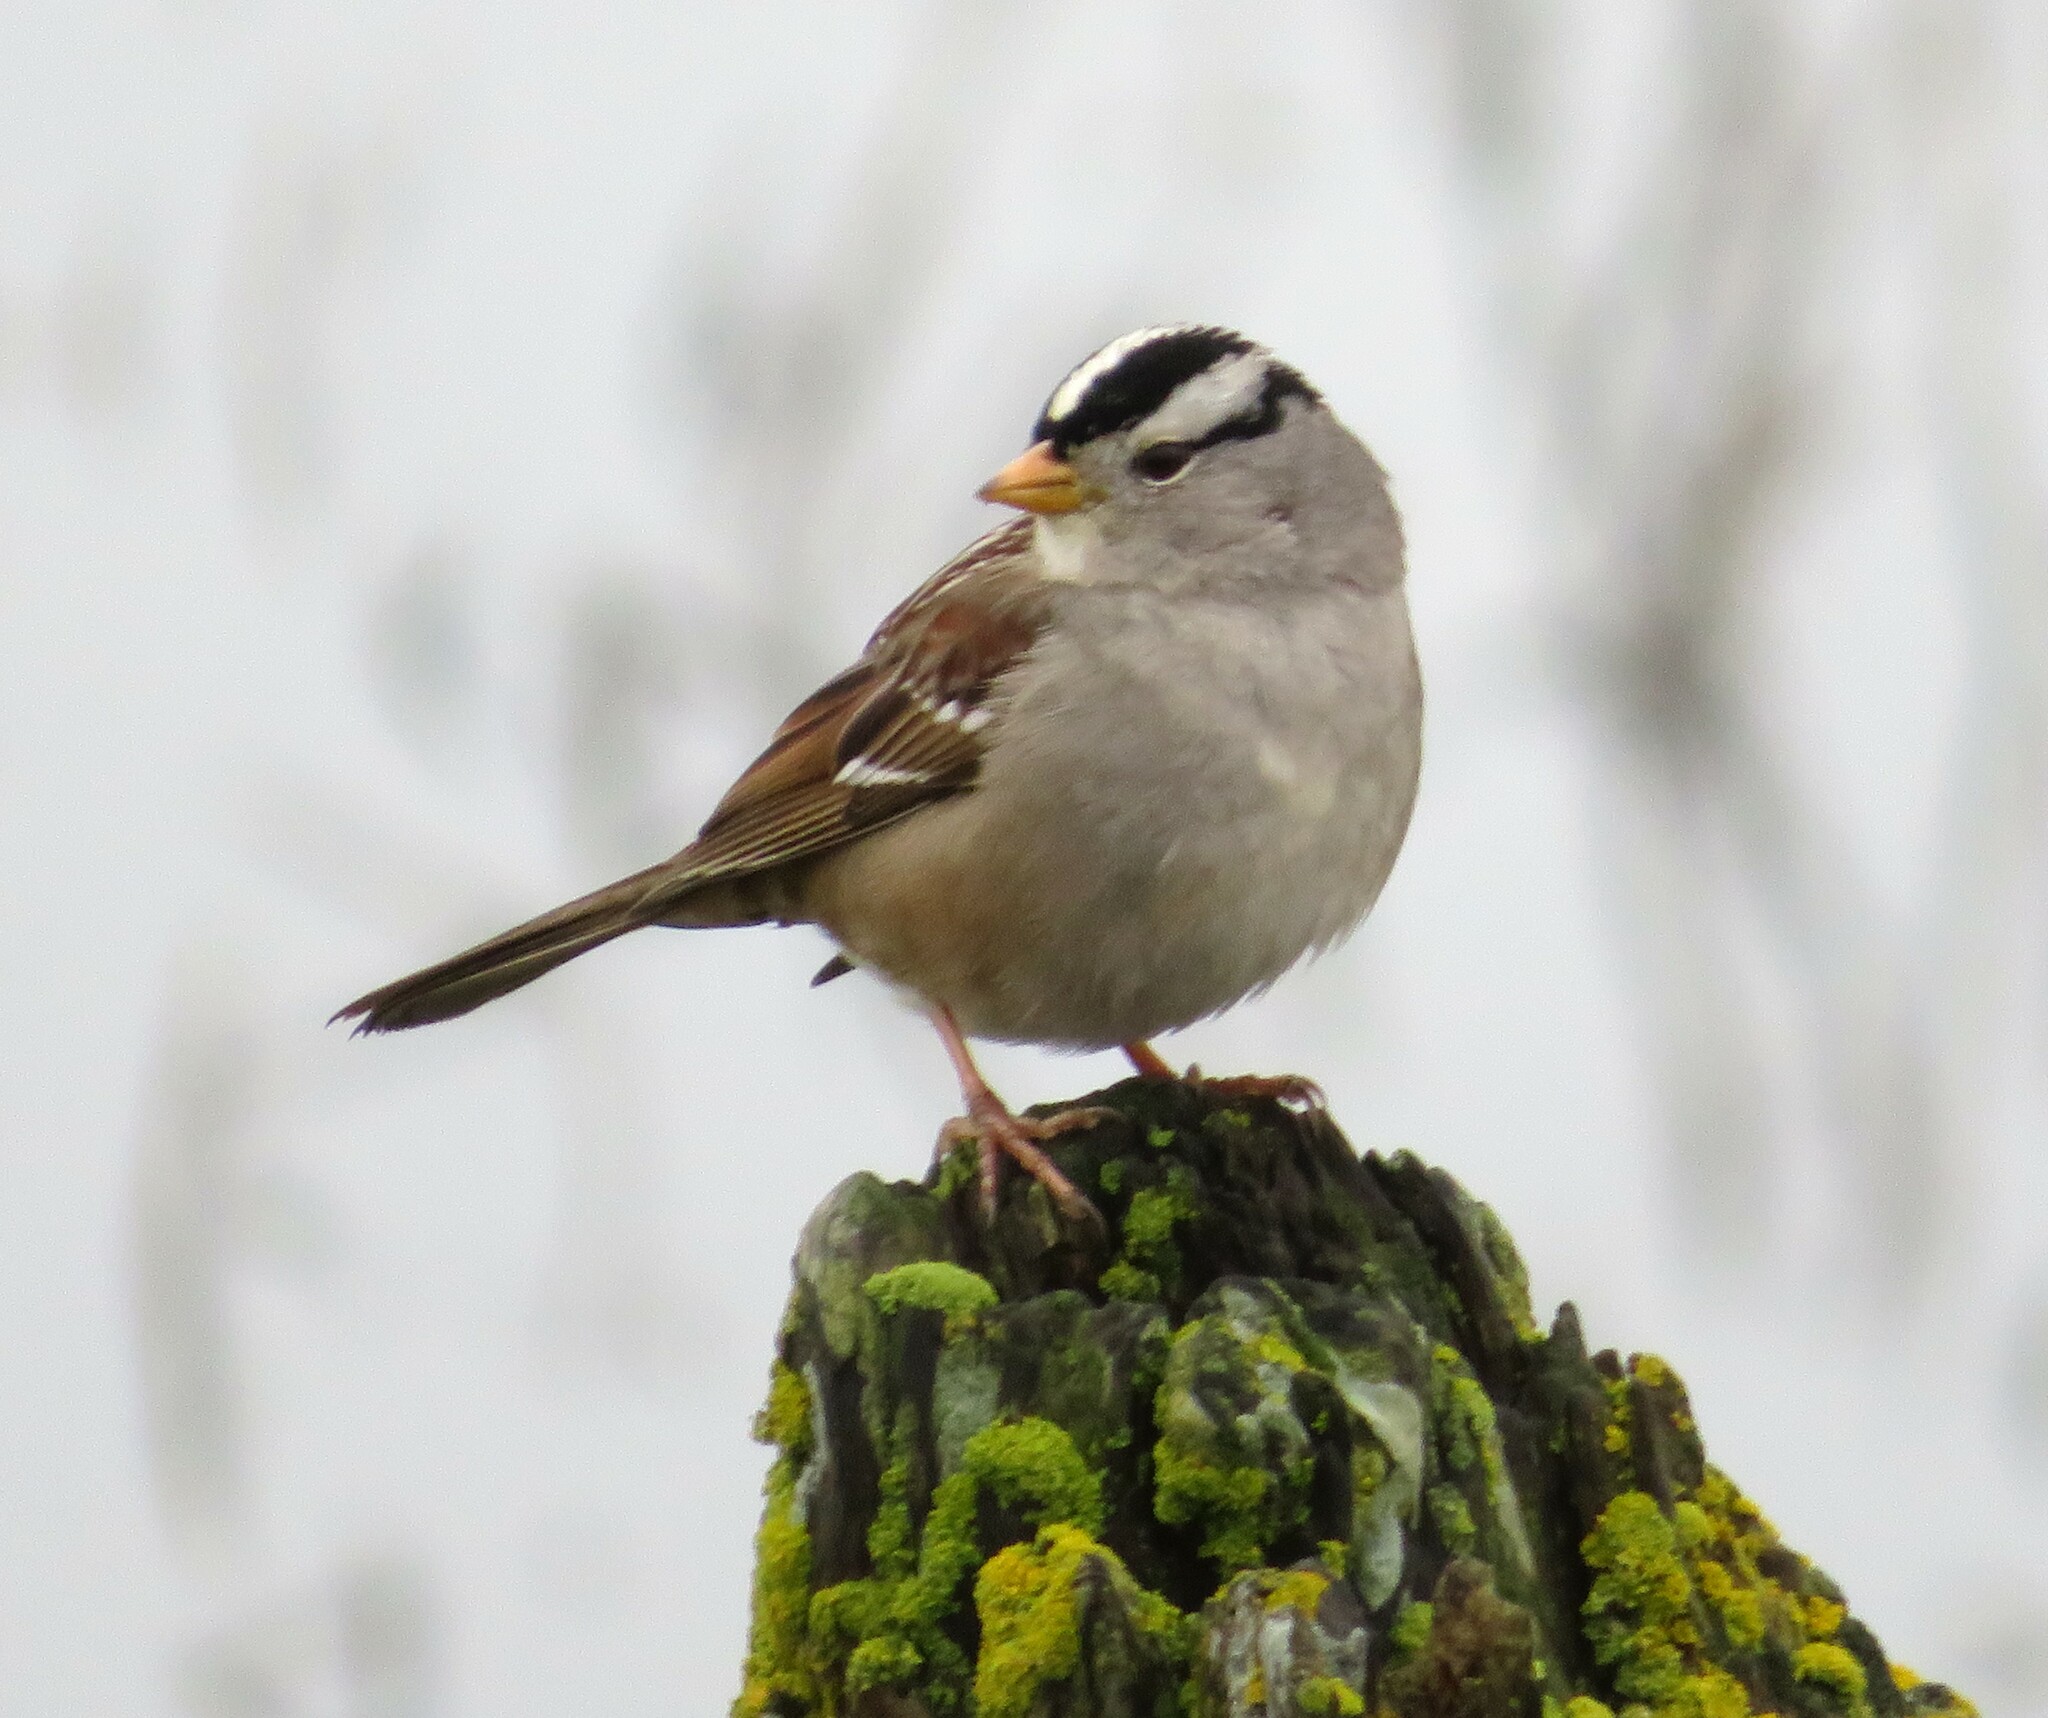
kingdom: Animalia
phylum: Chordata
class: Aves
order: Passeriformes
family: Passerellidae
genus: Zonotrichia
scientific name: Zonotrichia leucophrys
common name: White-crowned sparrow
